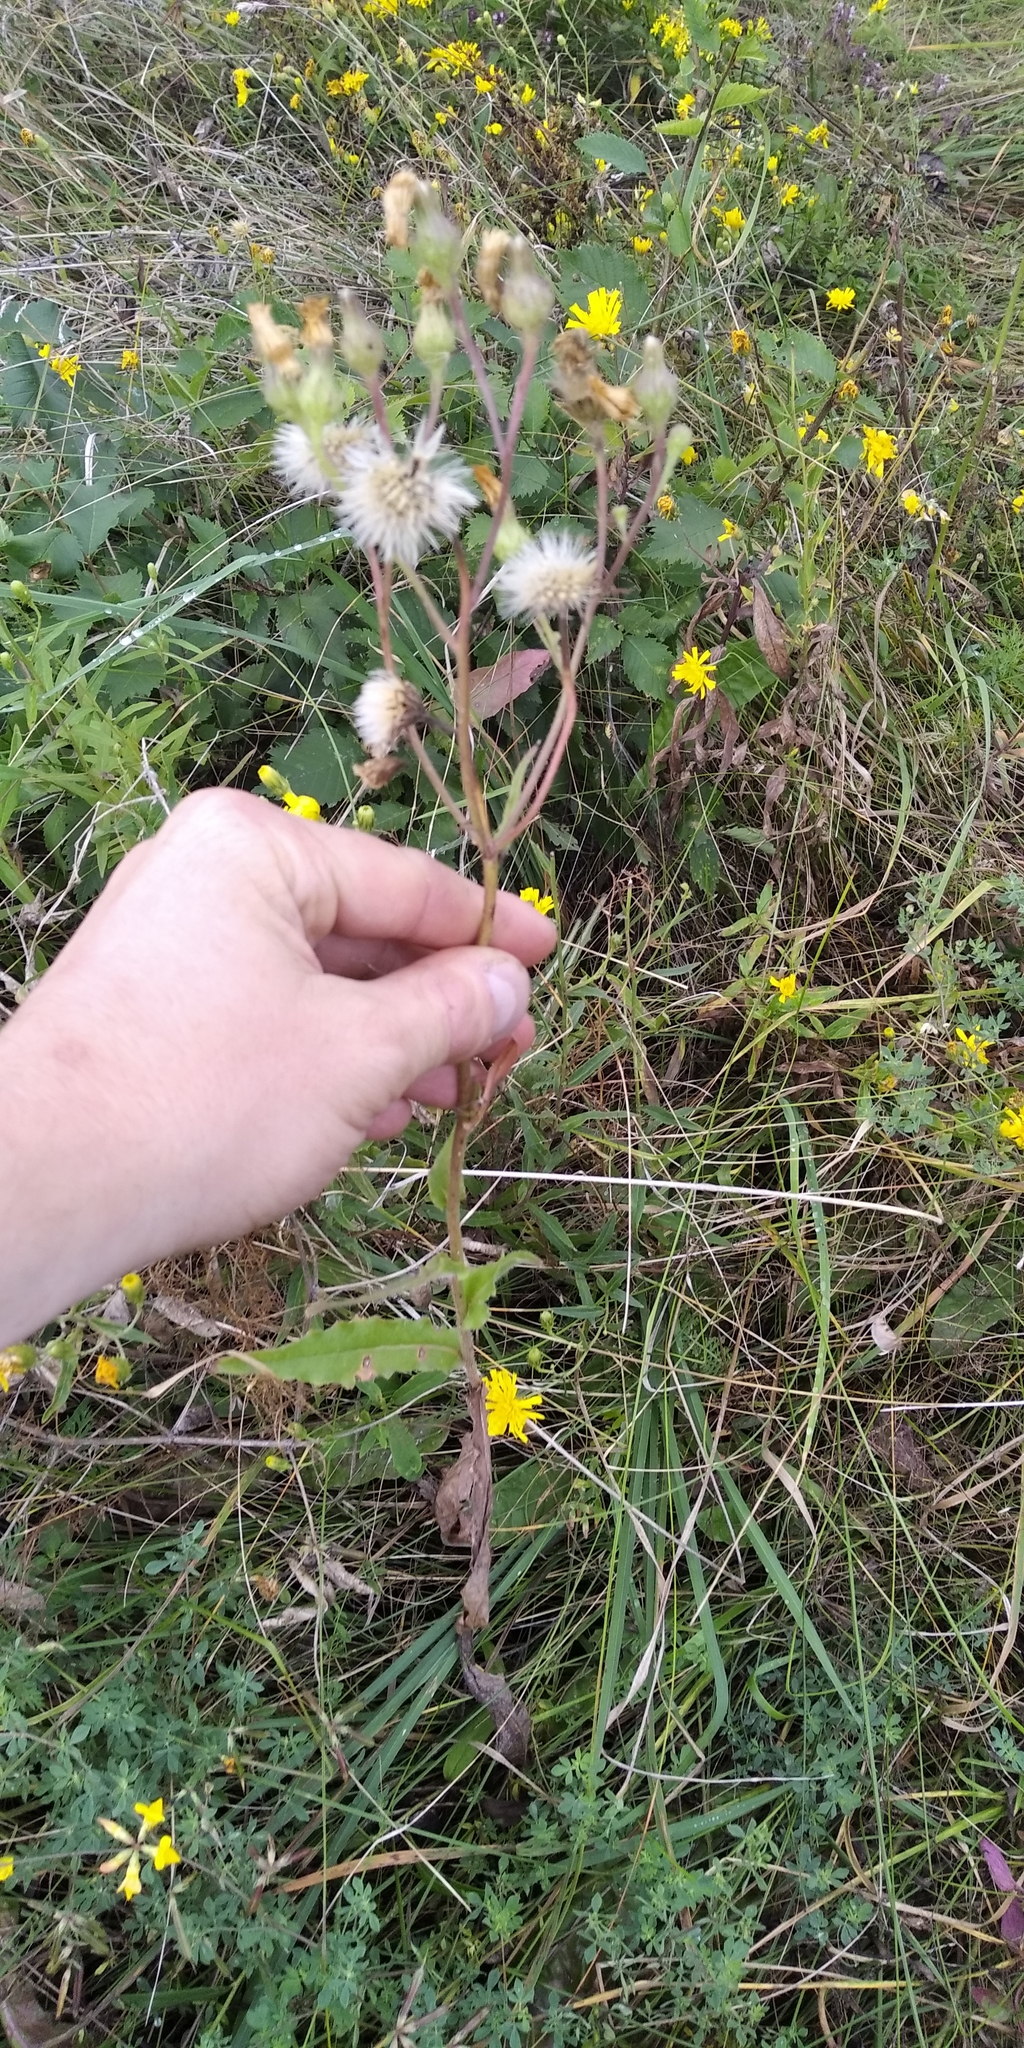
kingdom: Plantae
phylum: Tracheophyta
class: Magnoliopsida
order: Asterales
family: Asteraceae
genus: Crepis
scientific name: Crepis foetida
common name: Stinking hawk's-beard
